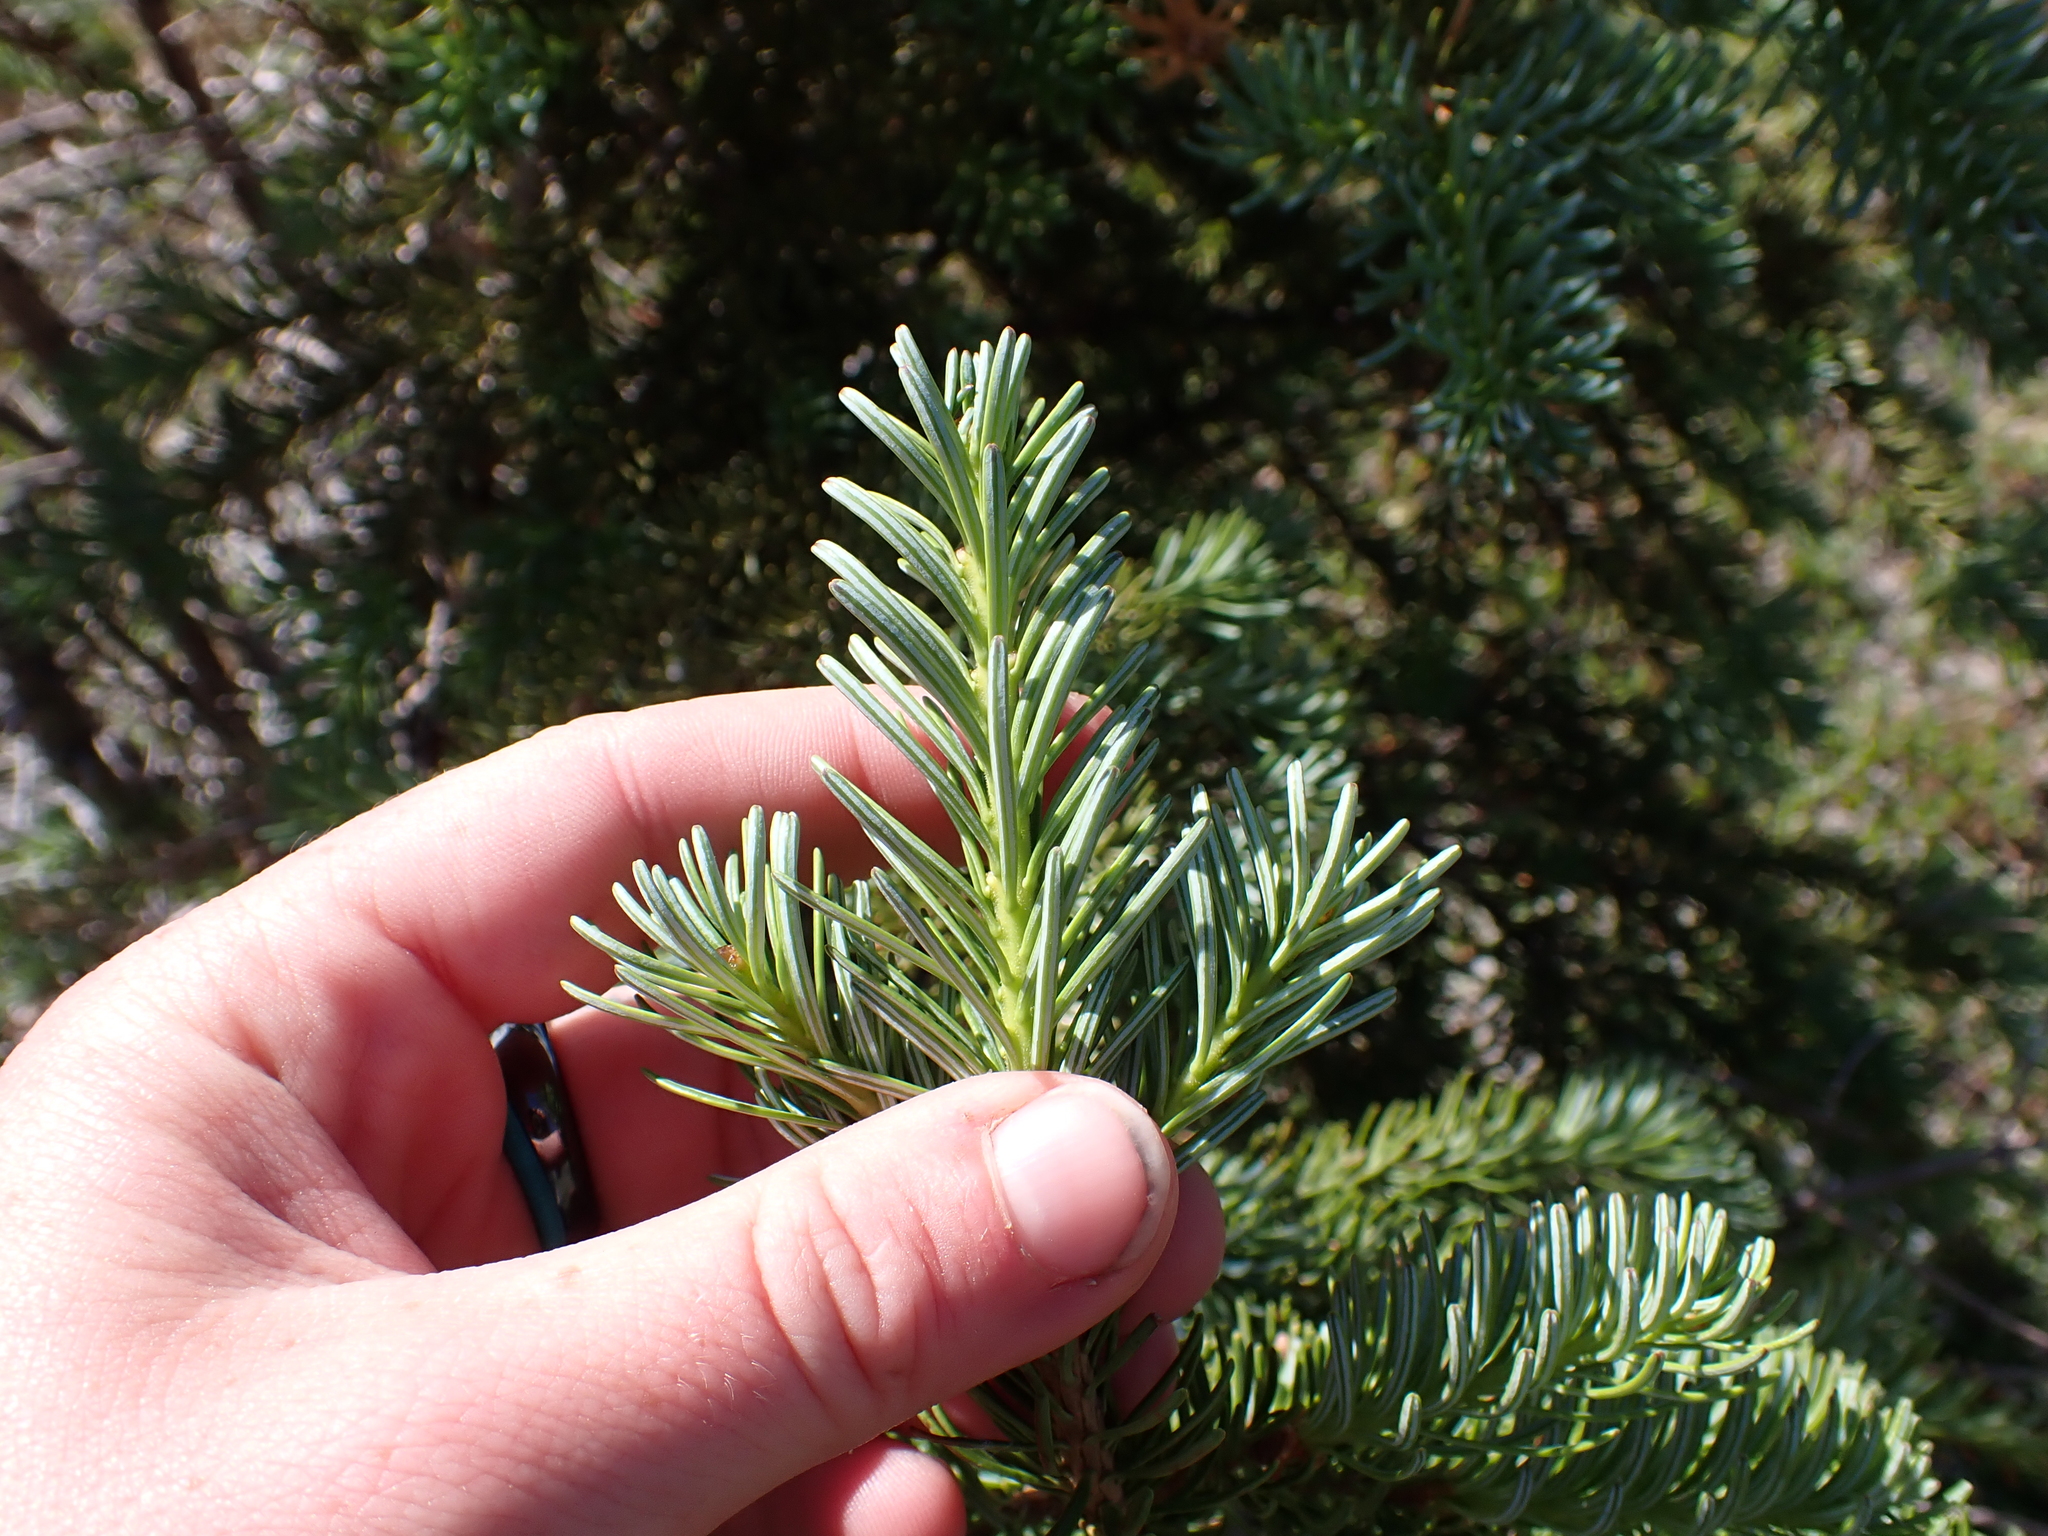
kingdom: Plantae
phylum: Tracheophyta
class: Pinopsida
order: Pinales
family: Pinaceae
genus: Abies
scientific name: Abies lasiocarpa
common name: Subalpine fir
